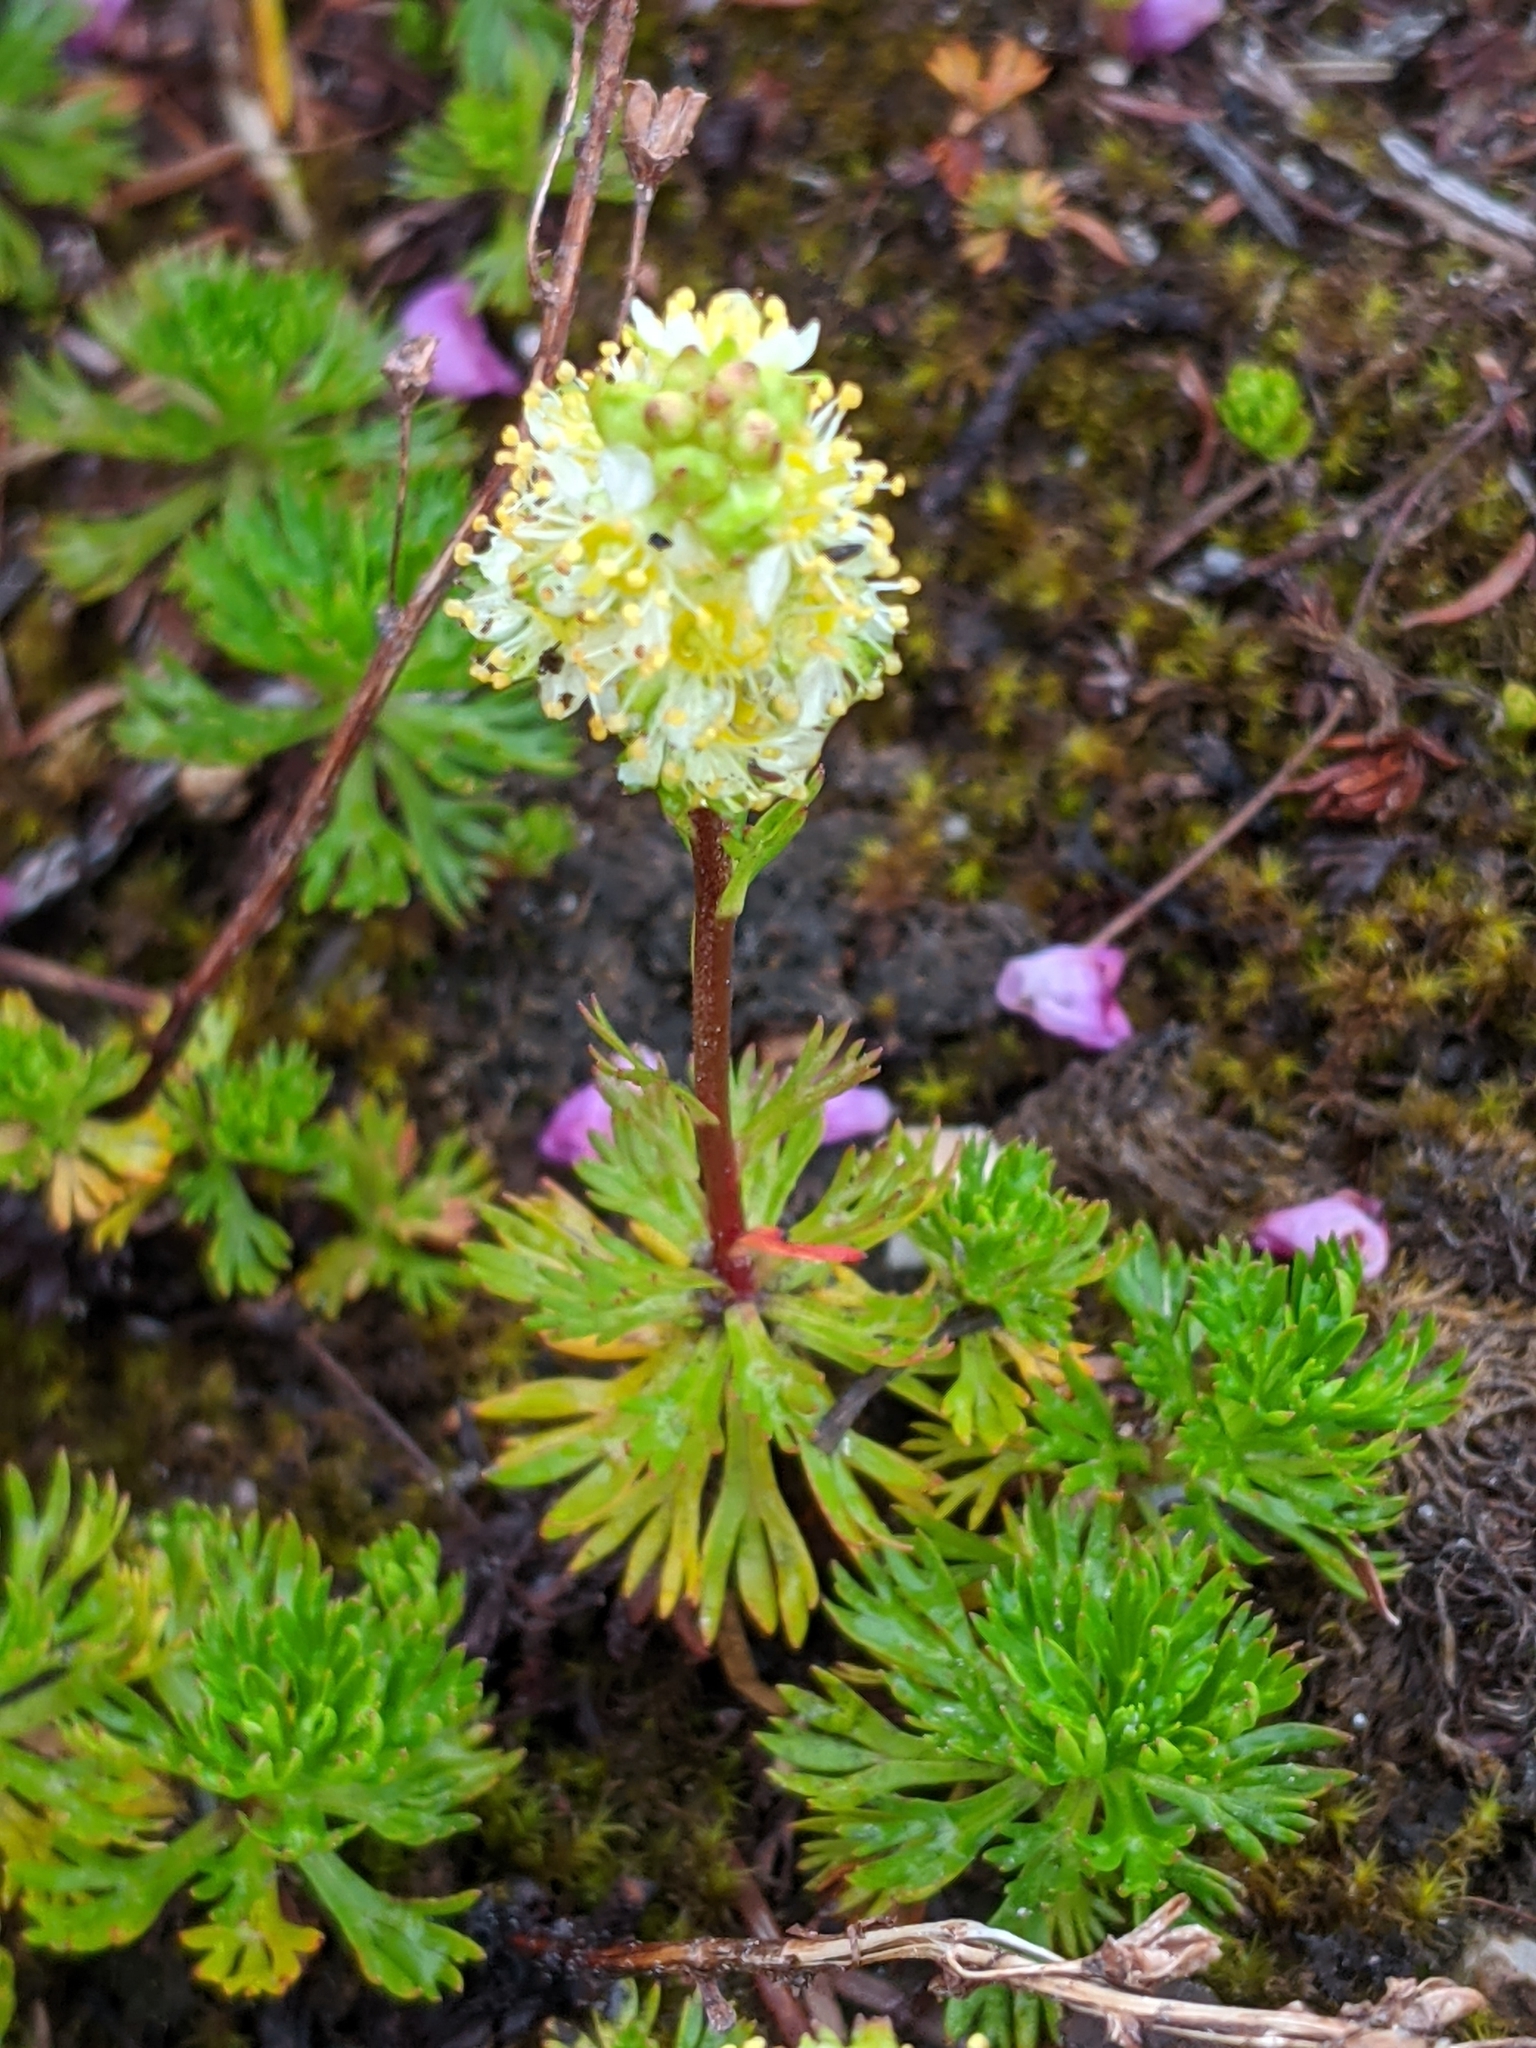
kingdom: Plantae
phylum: Tracheophyta
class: Magnoliopsida
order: Rosales
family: Rosaceae
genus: Luetkea
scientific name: Luetkea pectinata
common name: Partridgefoot
